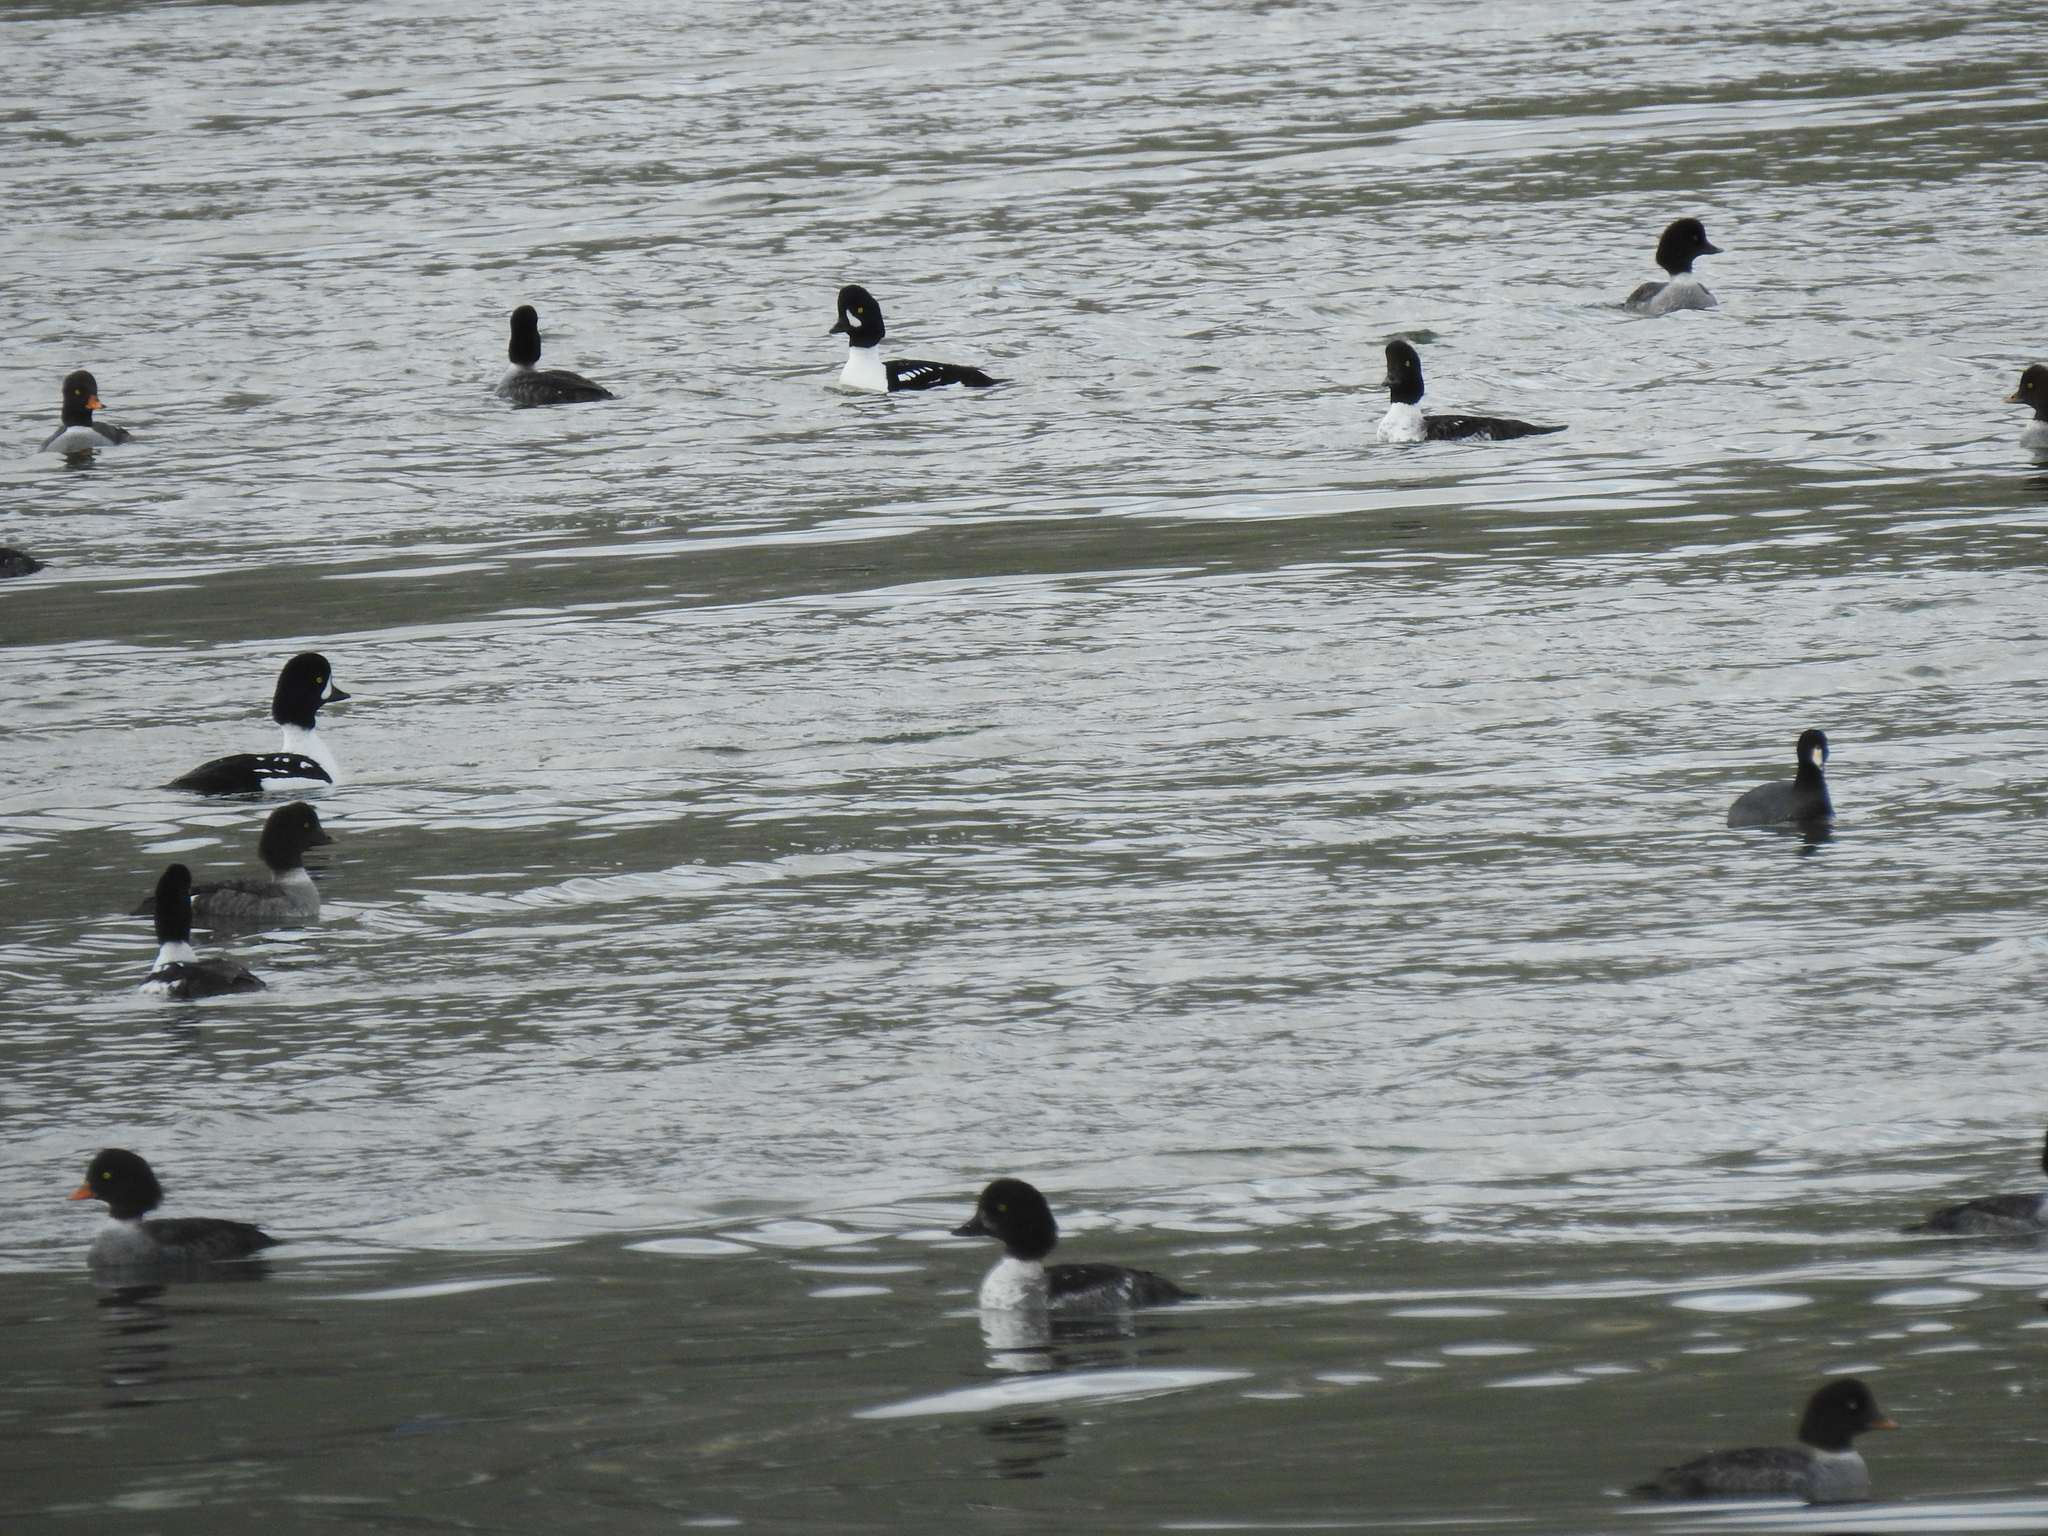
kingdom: Animalia
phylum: Chordata
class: Aves
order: Anseriformes
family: Anatidae
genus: Bucephala
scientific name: Bucephala islandica
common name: Barrow's goldeneye
